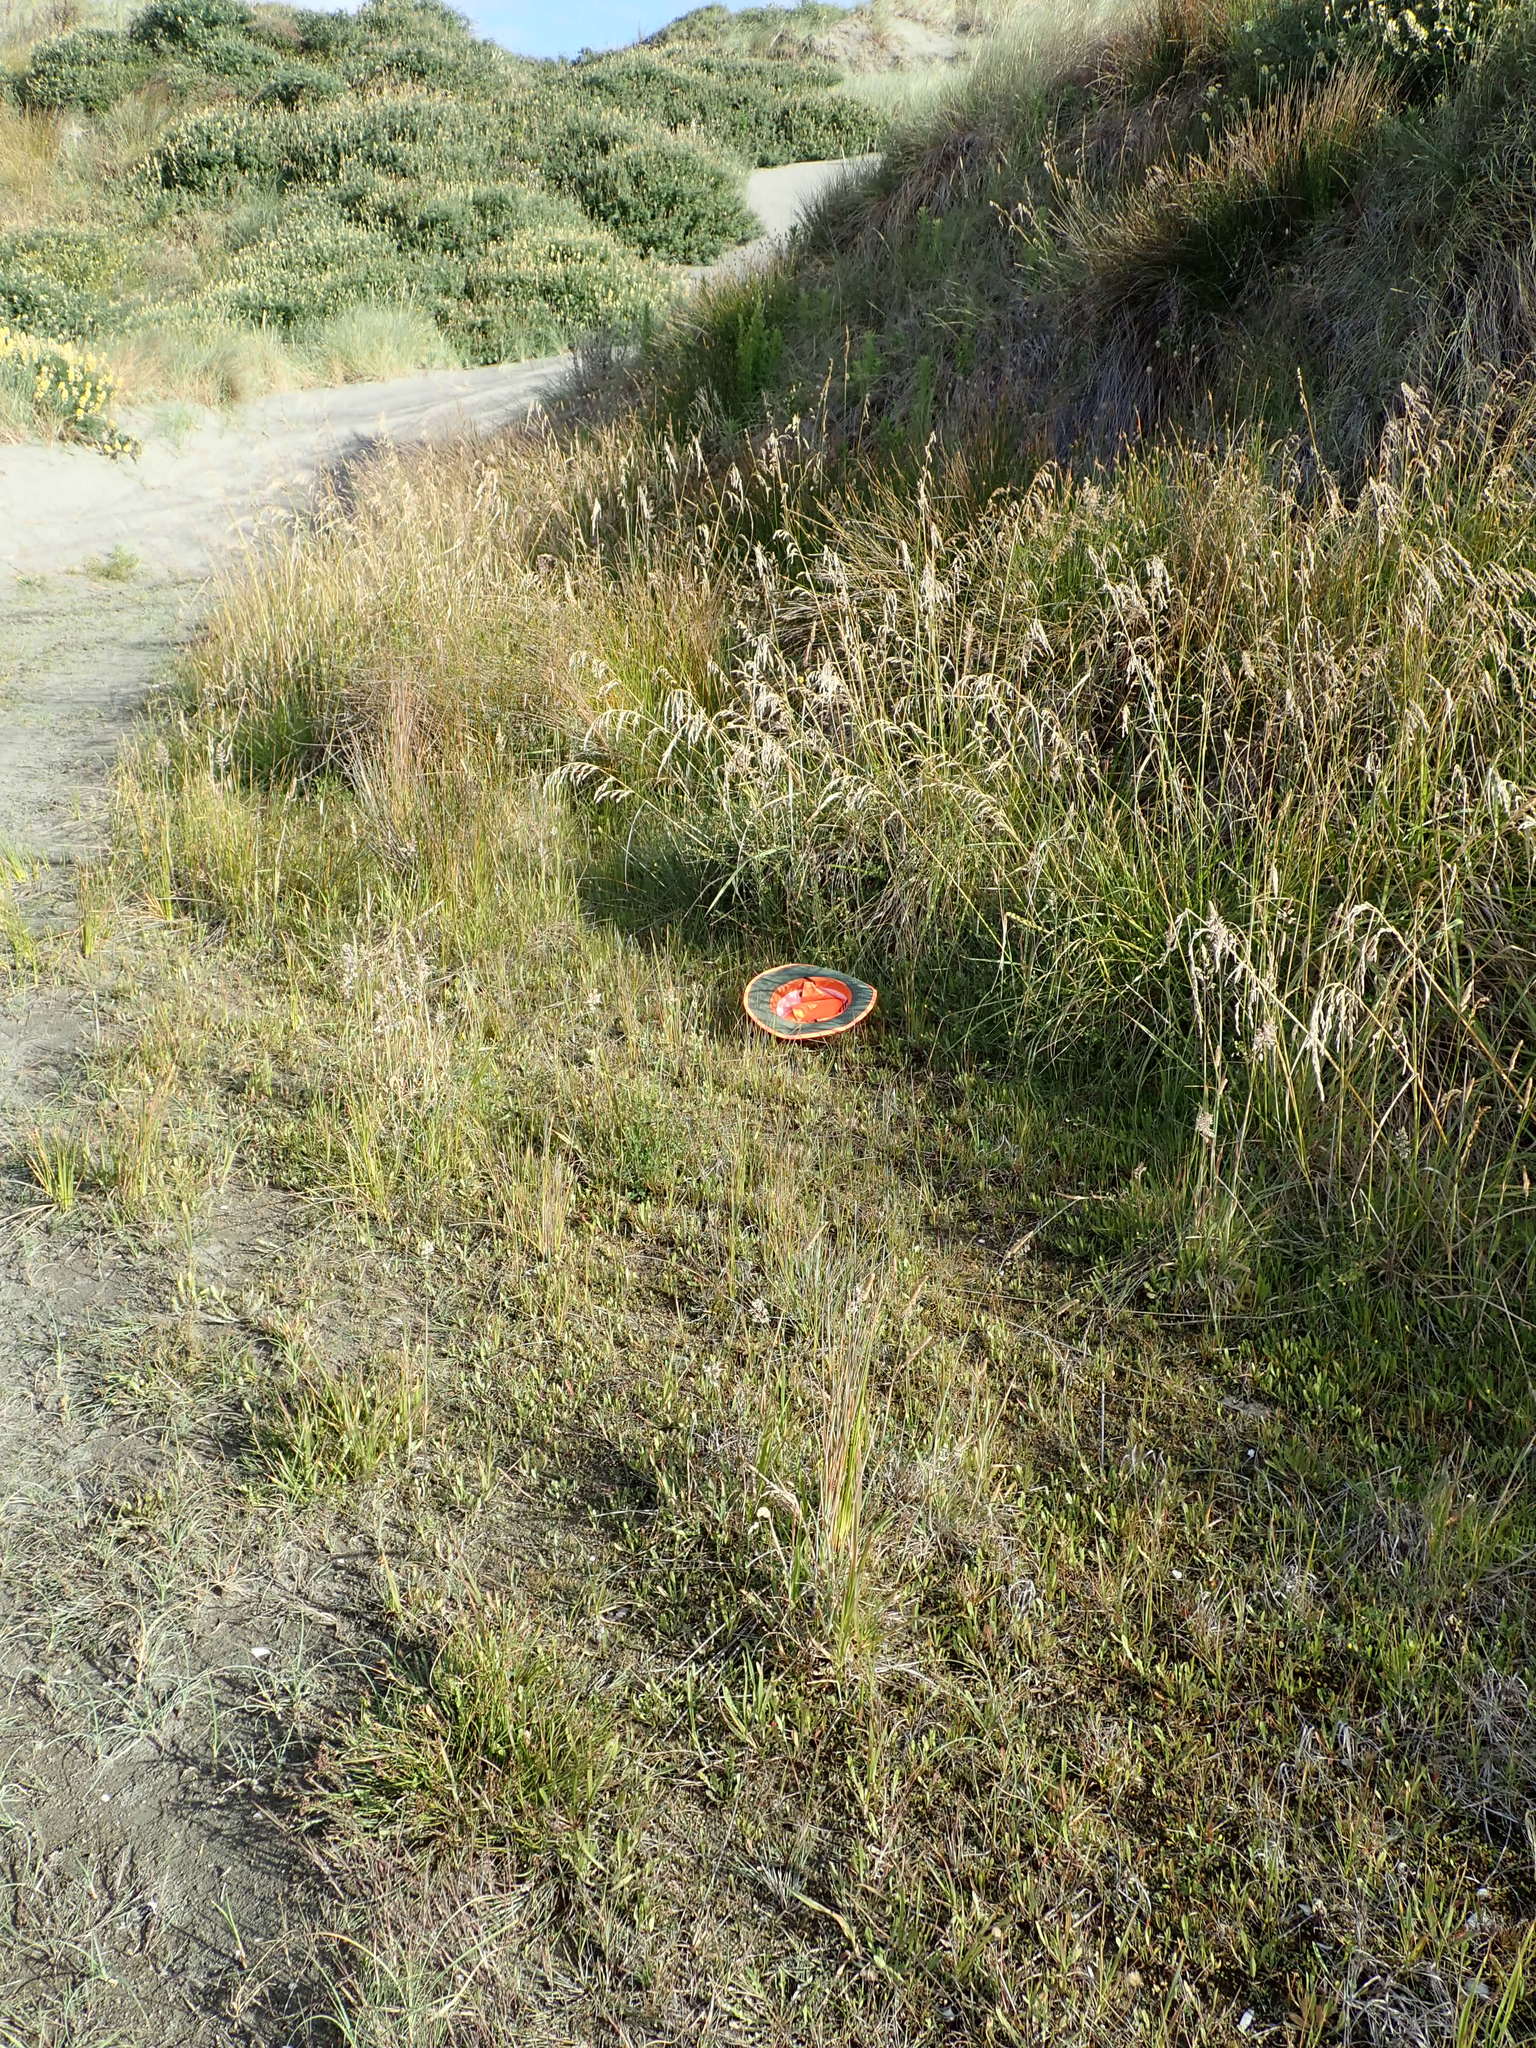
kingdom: Plantae
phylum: Tracheophyta
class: Magnoliopsida
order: Gentianales
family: Gentianaceae
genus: Centaurium
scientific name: Centaurium erythraea
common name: Common centaury
